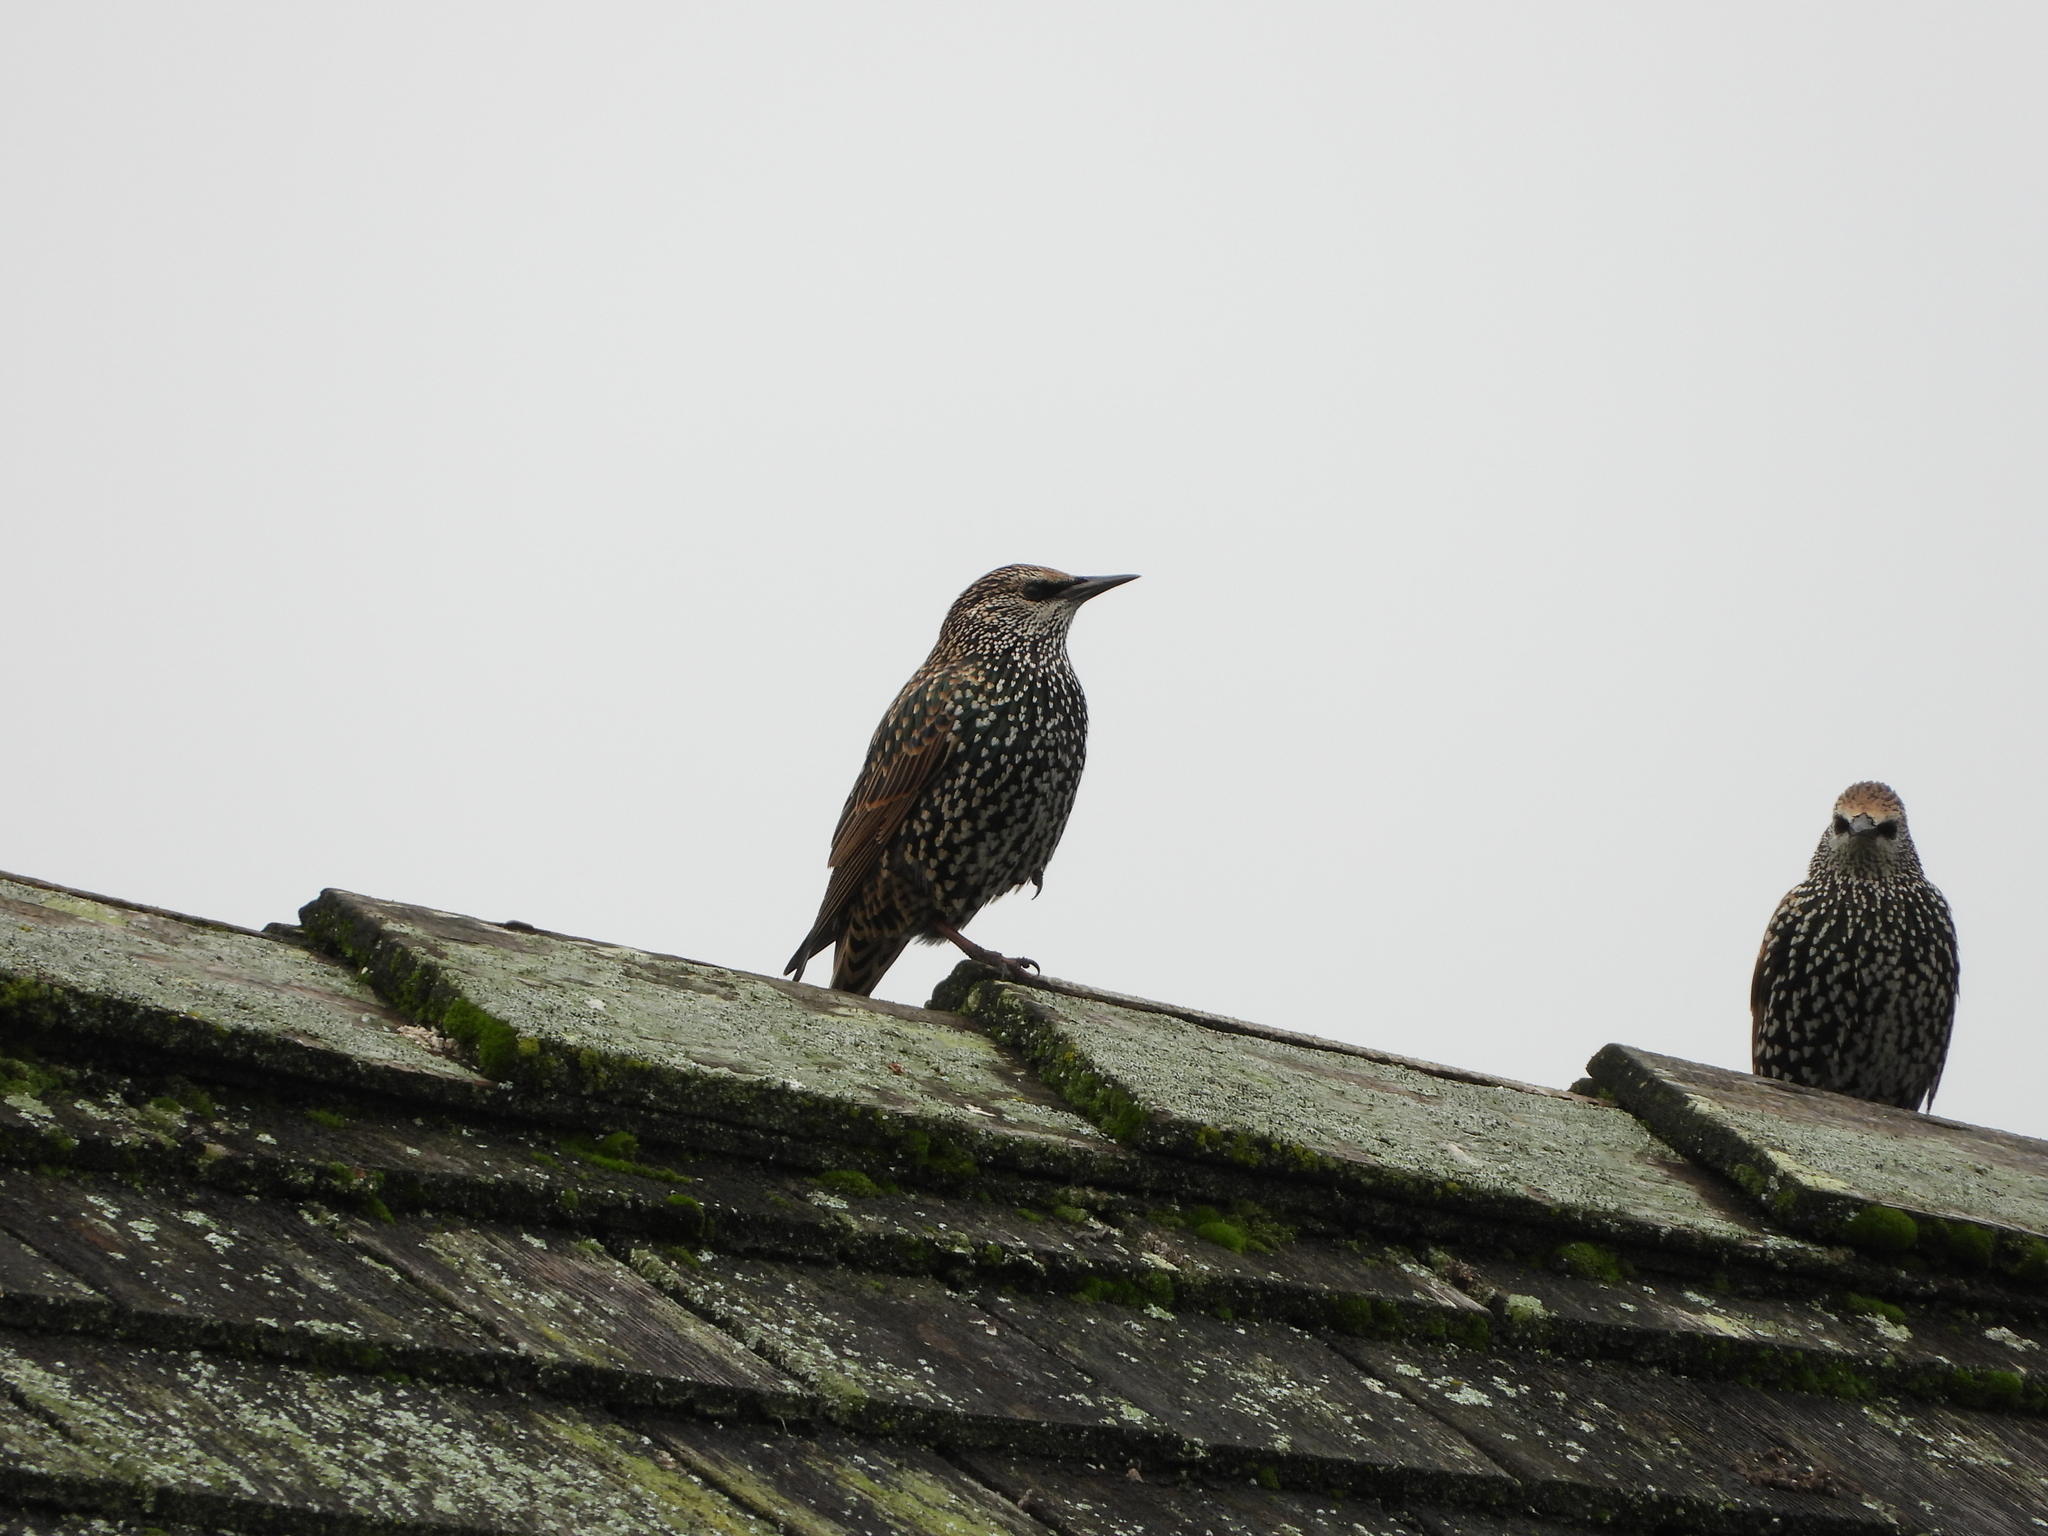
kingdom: Animalia
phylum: Chordata
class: Aves
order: Passeriformes
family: Sturnidae
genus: Sturnus
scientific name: Sturnus vulgaris
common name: Common starling
